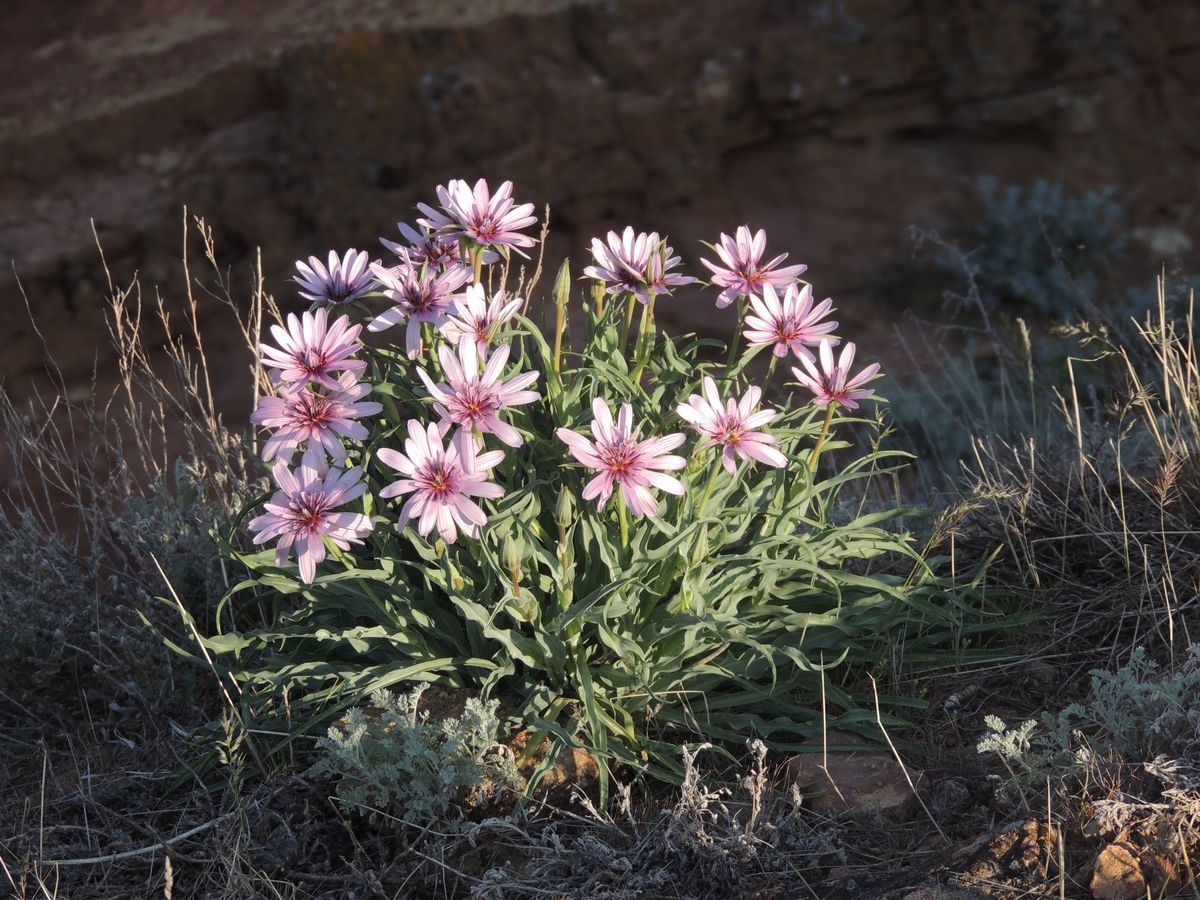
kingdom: Plantae
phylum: Tracheophyta
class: Magnoliopsida
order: Asterales
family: Asteraceae
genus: Tragopogon
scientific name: Tragopogon marginifolius
